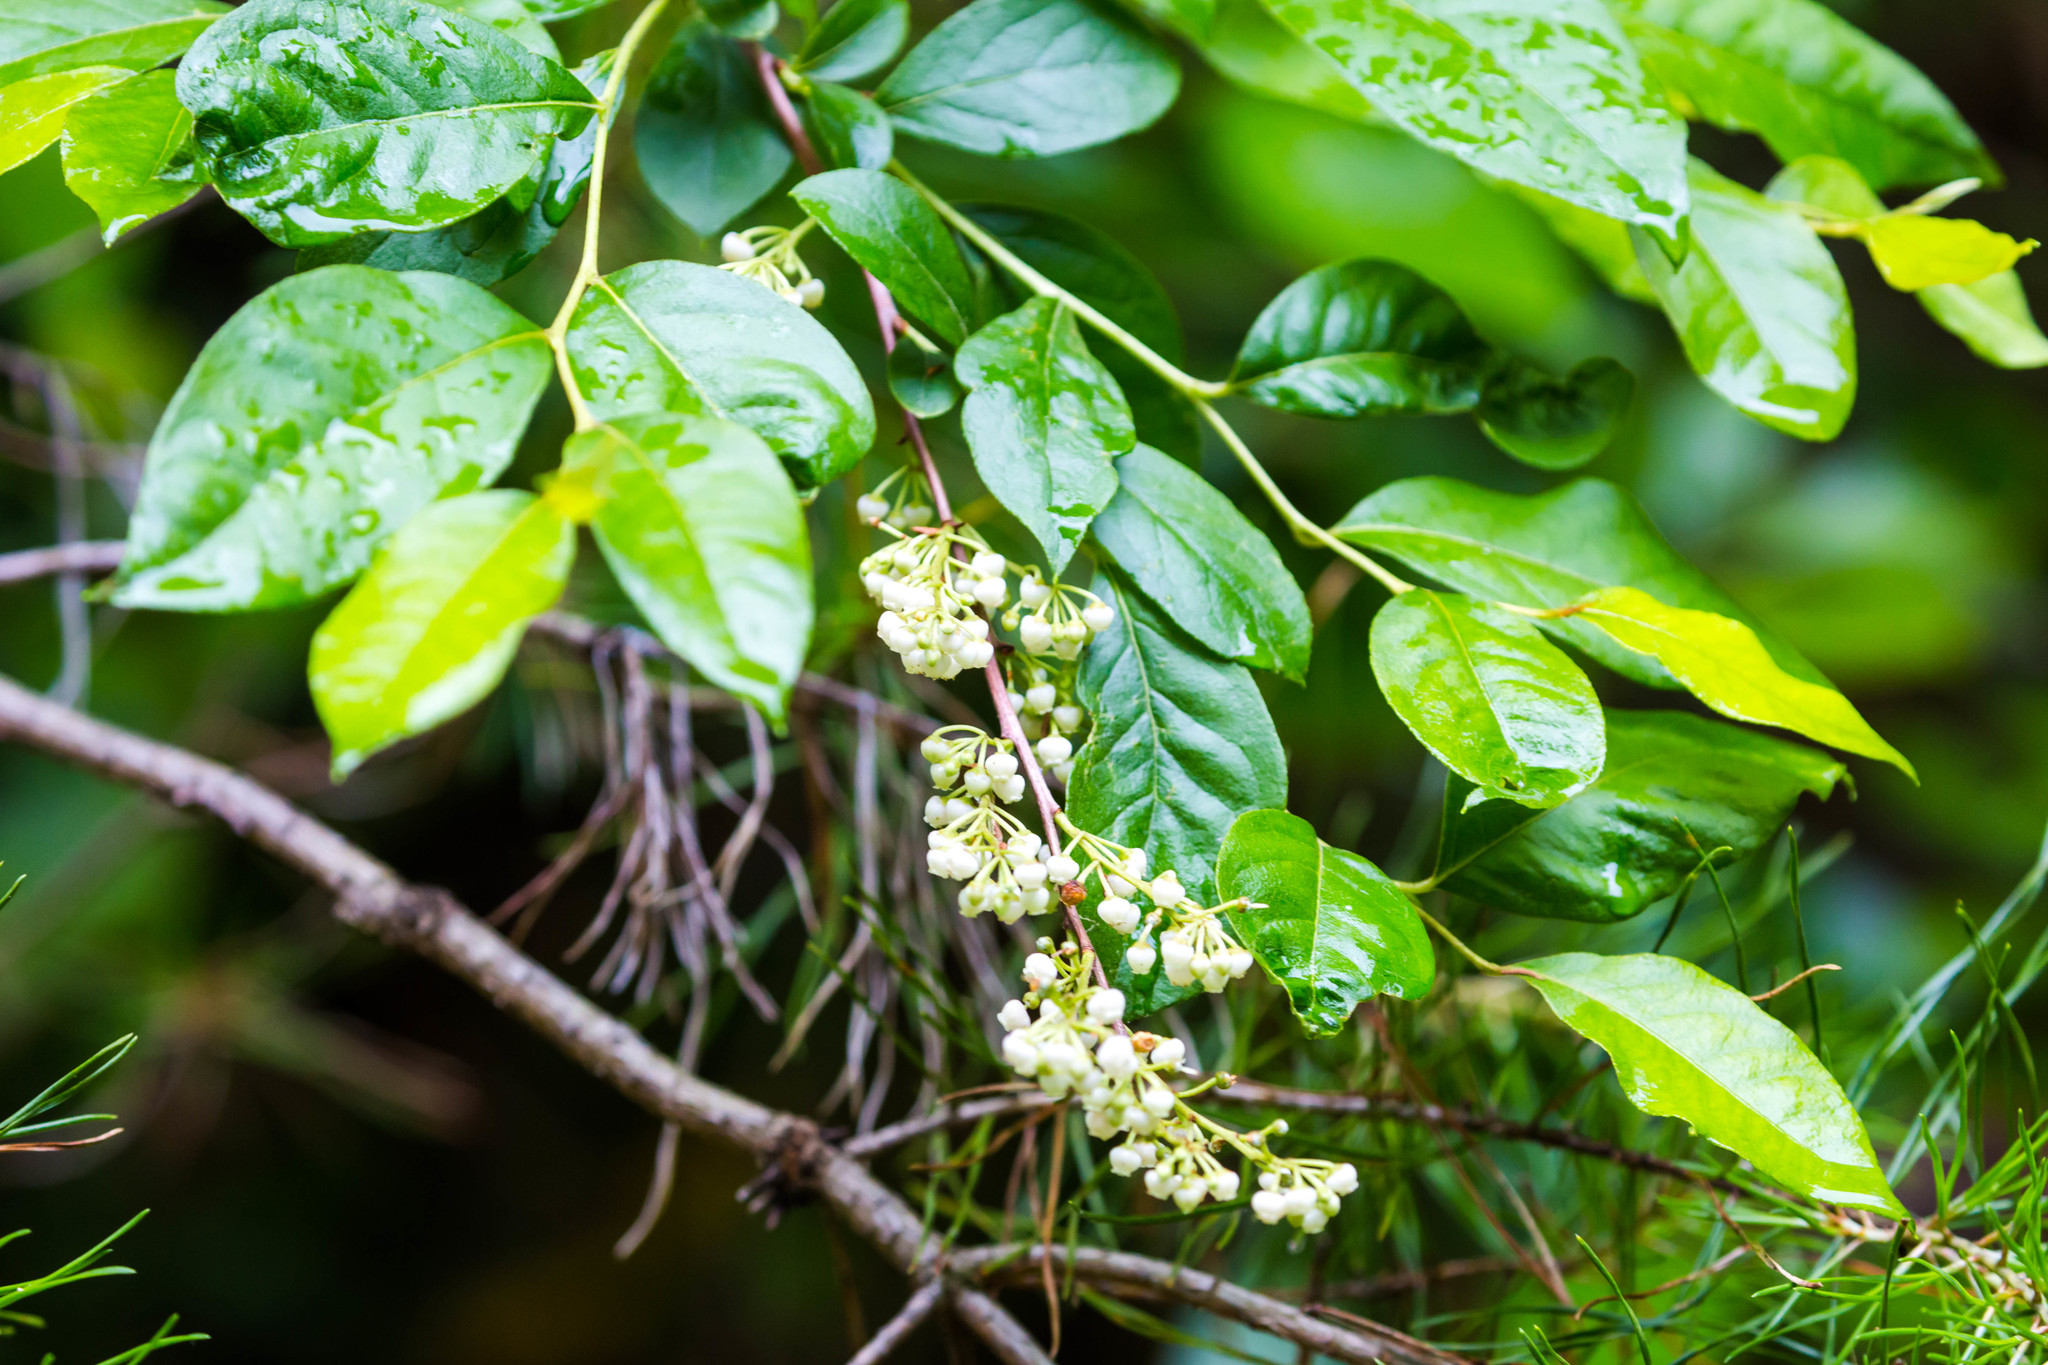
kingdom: Plantae
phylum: Tracheophyta
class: Magnoliopsida
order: Ericales
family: Ericaceae
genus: Lyonia
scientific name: Lyonia ligustrina
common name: Maleberry
